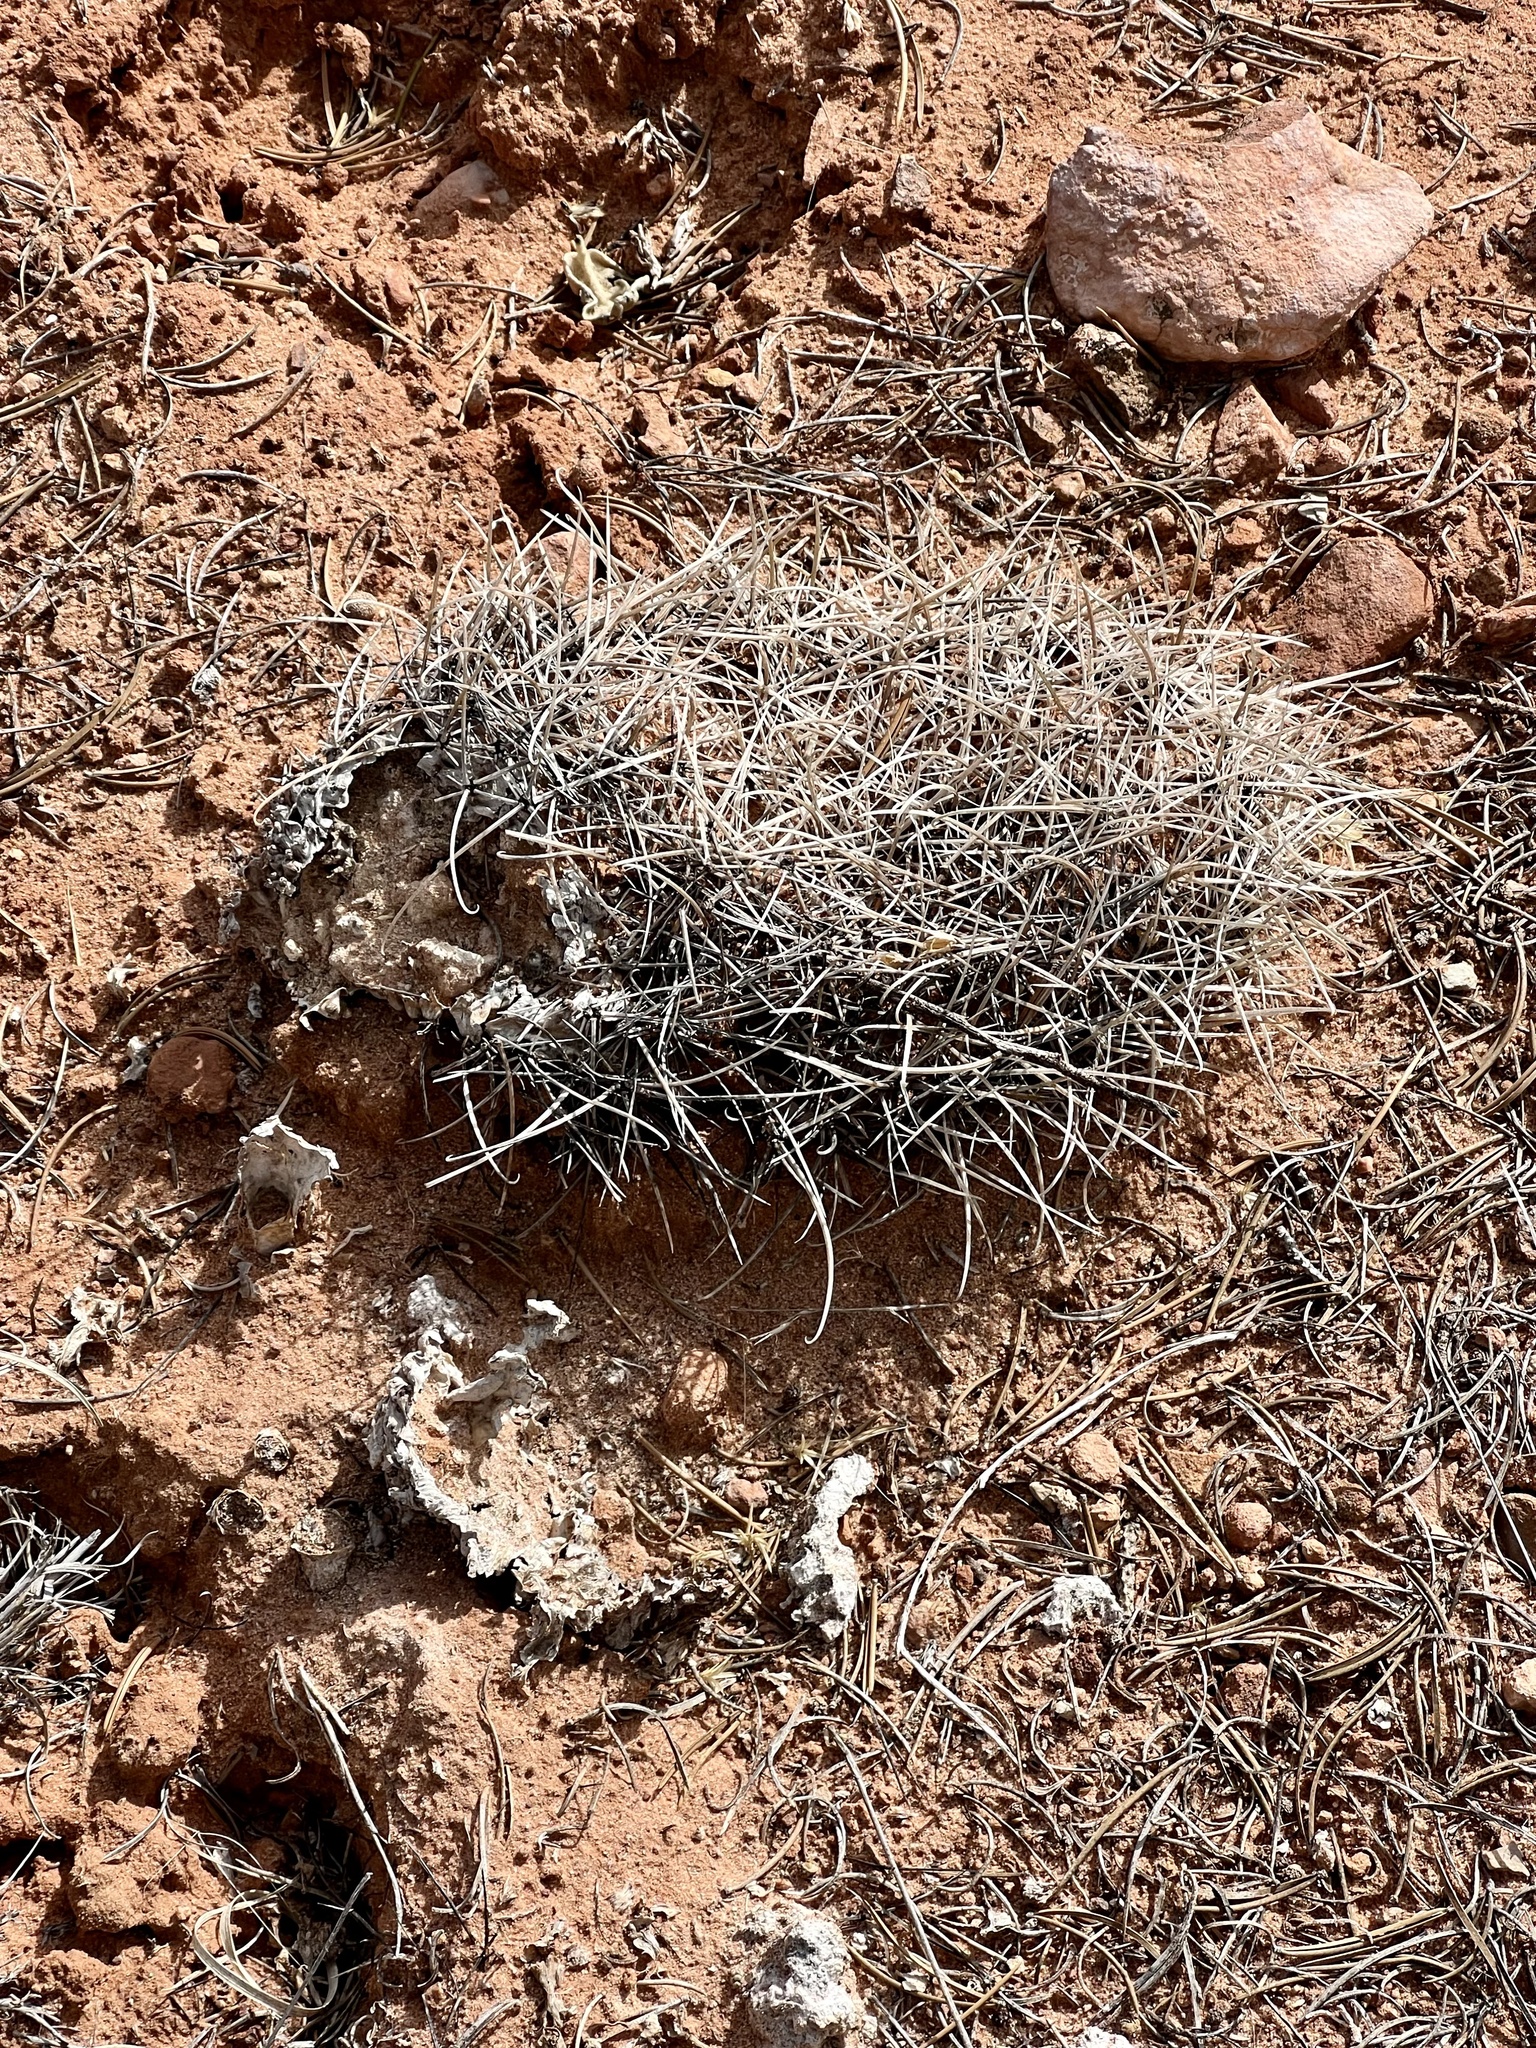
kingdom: Plantae
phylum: Tracheophyta
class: Magnoliopsida
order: Caryophyllales
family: Cactaceae
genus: Sclerocactus
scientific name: Sclerocactus parviflorus
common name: Small-flower fishhook cactus
